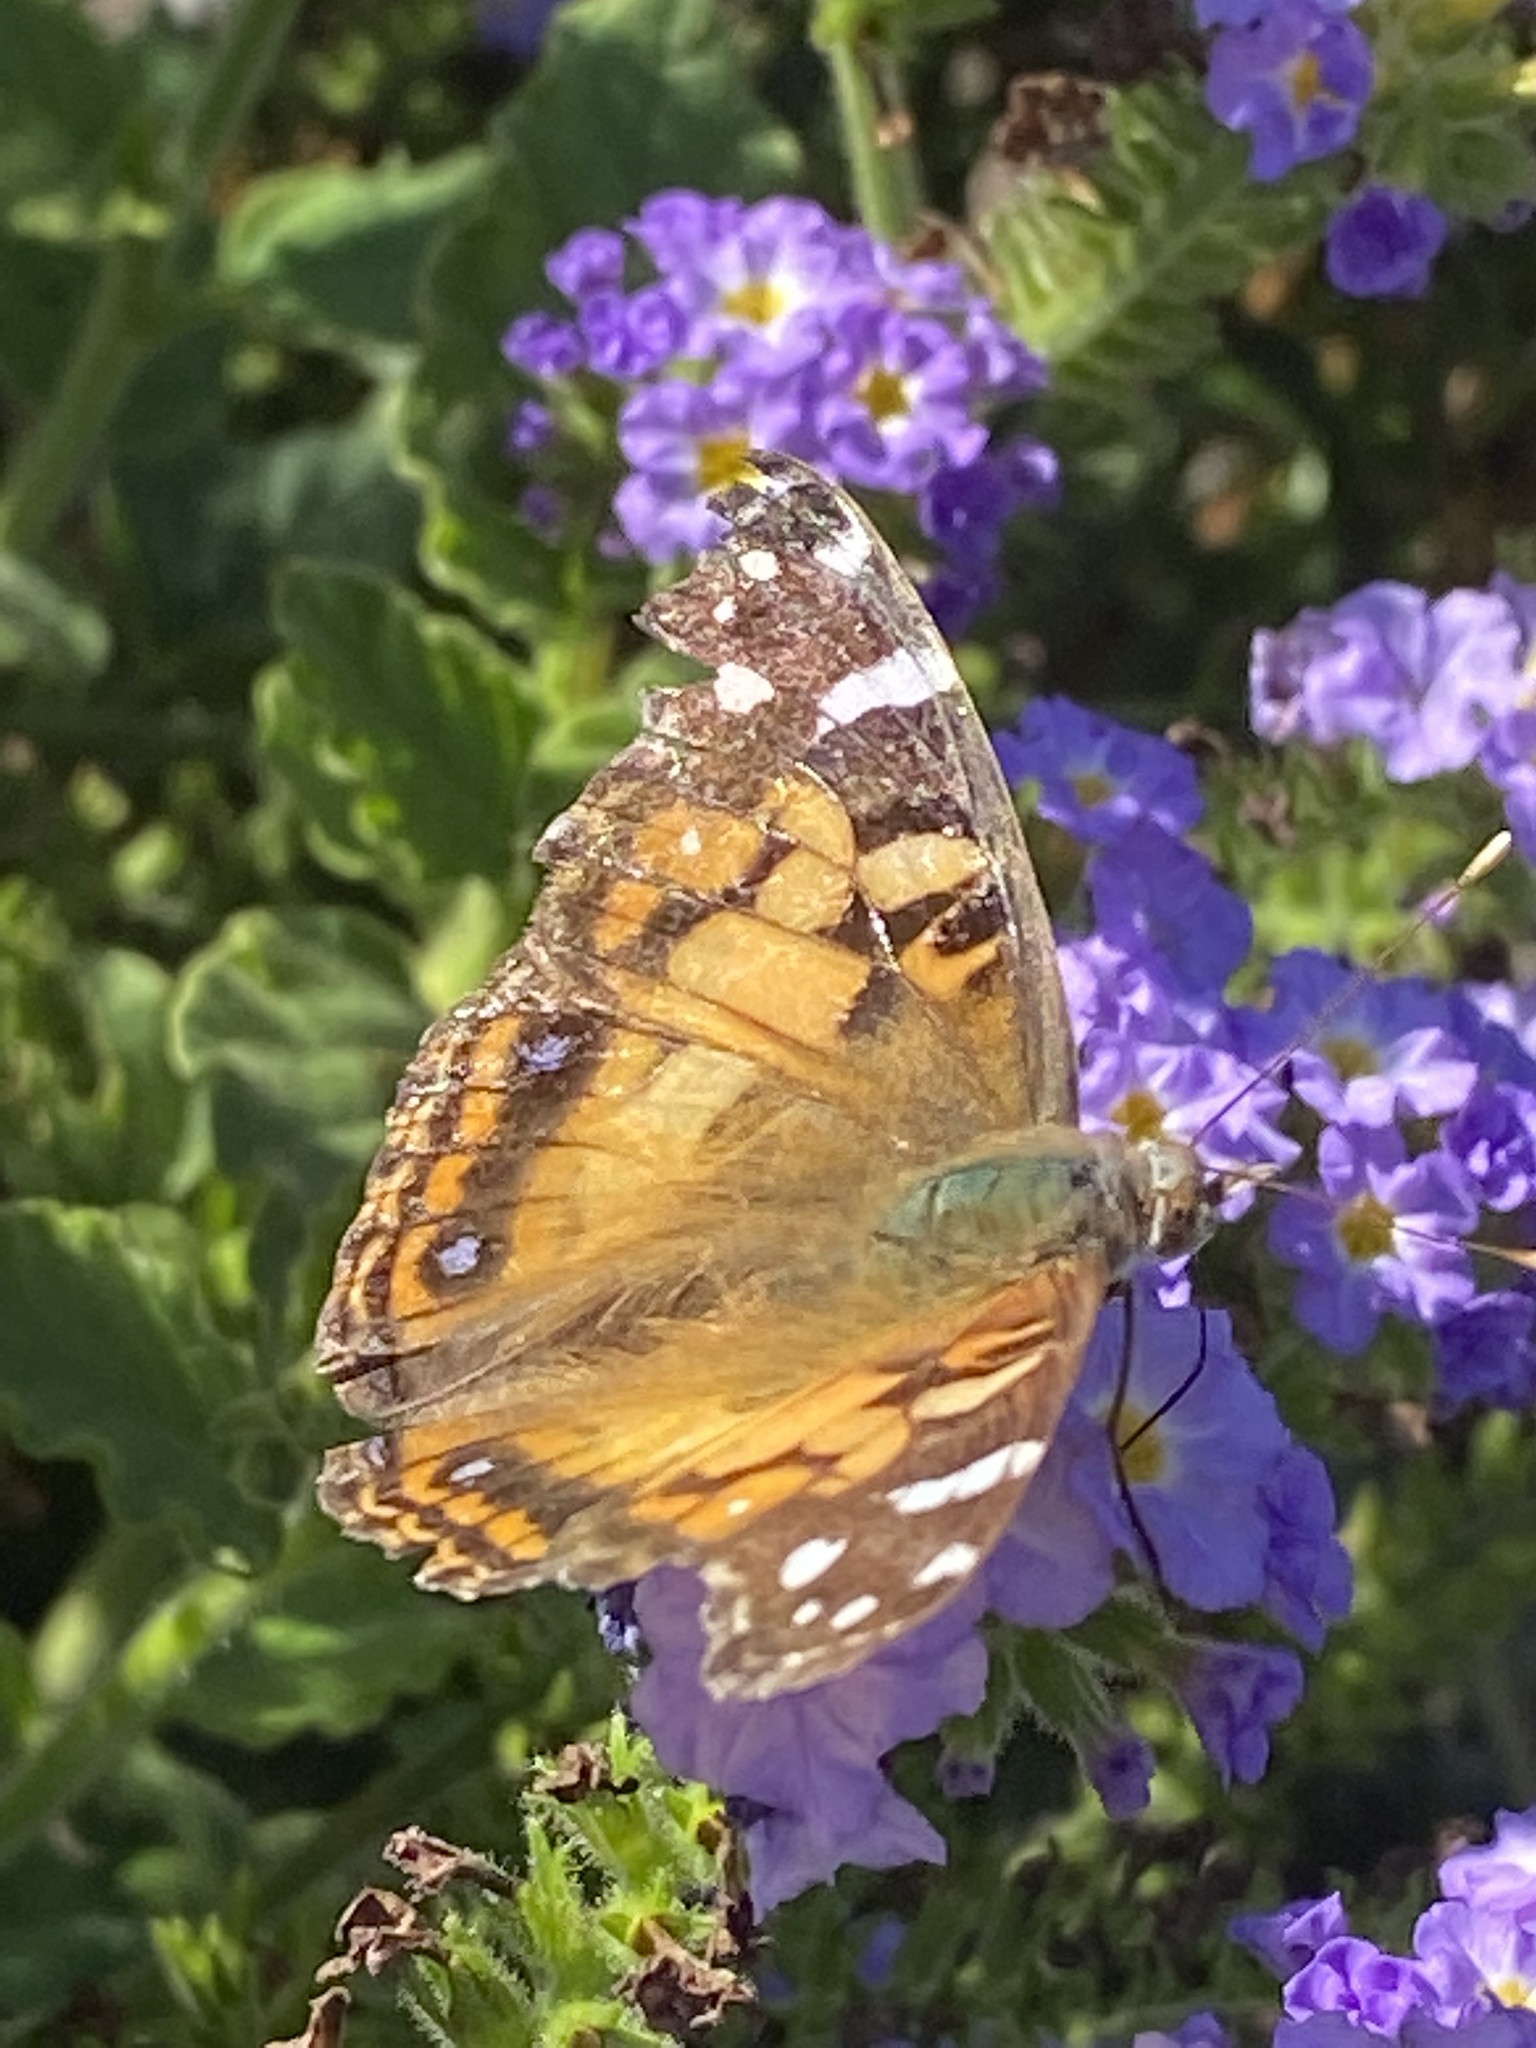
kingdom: Animalia
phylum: Arthropoda
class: Insecta
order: Lepidoptera
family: Nymphalidae
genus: Vanessa
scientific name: Vanessa virginiensis
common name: American lady
